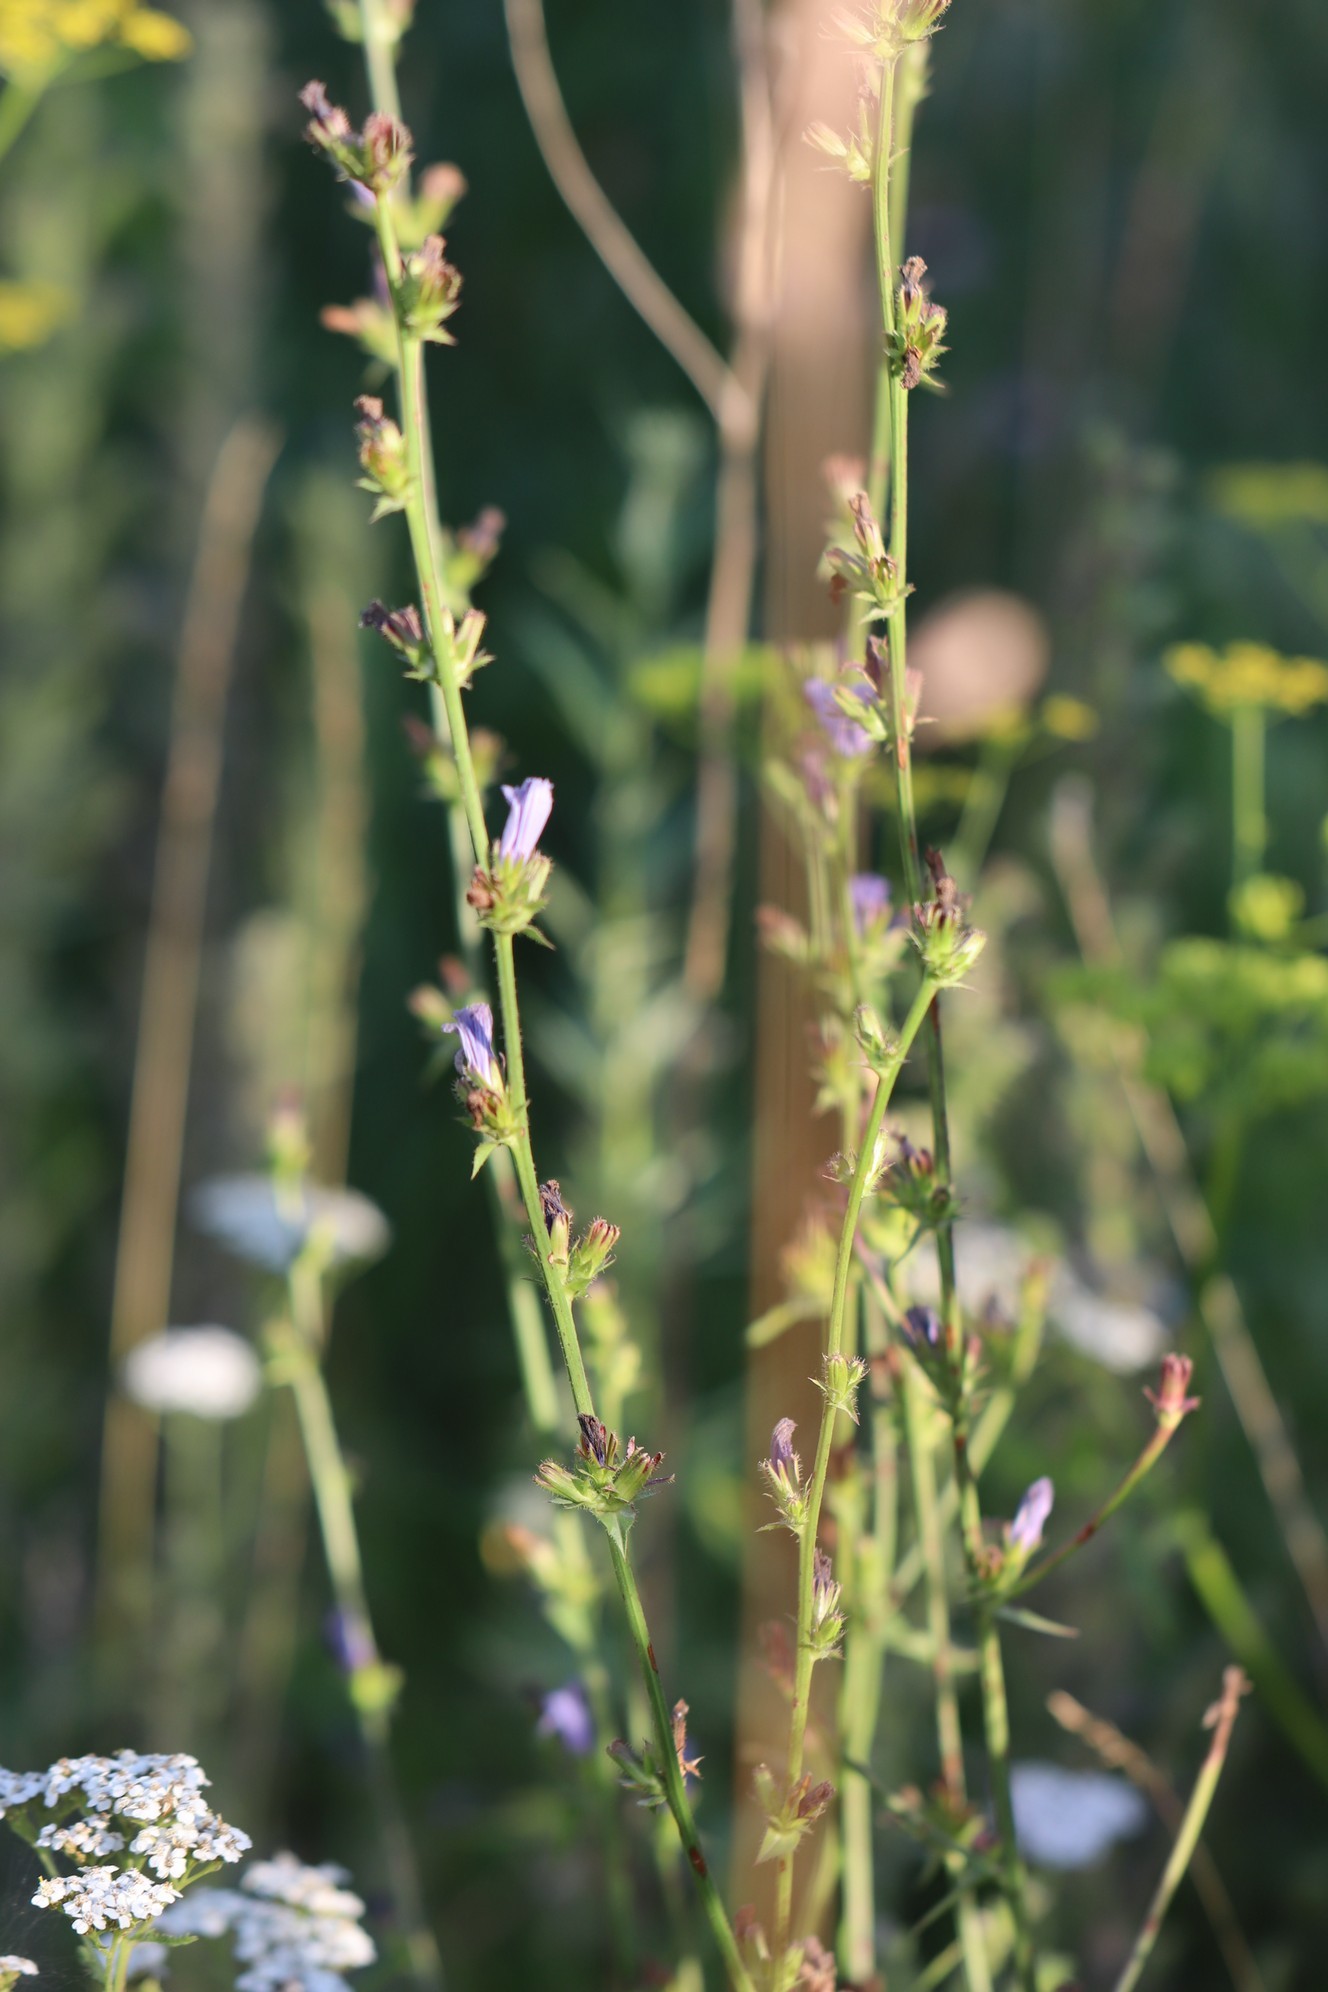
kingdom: Plantae
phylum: Tracheophyta
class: Magnoliopsida
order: Asterales
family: Asteraceae
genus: Cichorium
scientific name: Cichorium intybus
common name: Chicory
